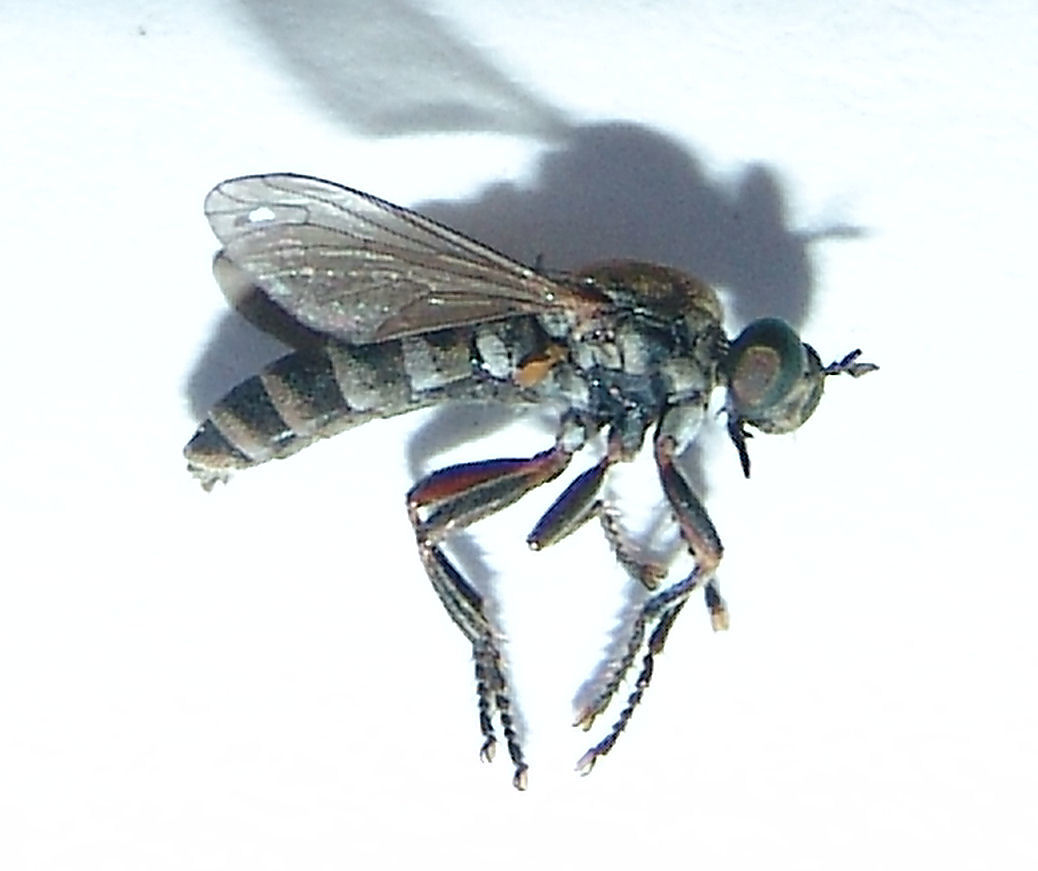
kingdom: Animalia
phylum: Arthropoda
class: Insecta
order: Diptera
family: Asilidae
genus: Psilocurus
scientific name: Psilocurus birdi
